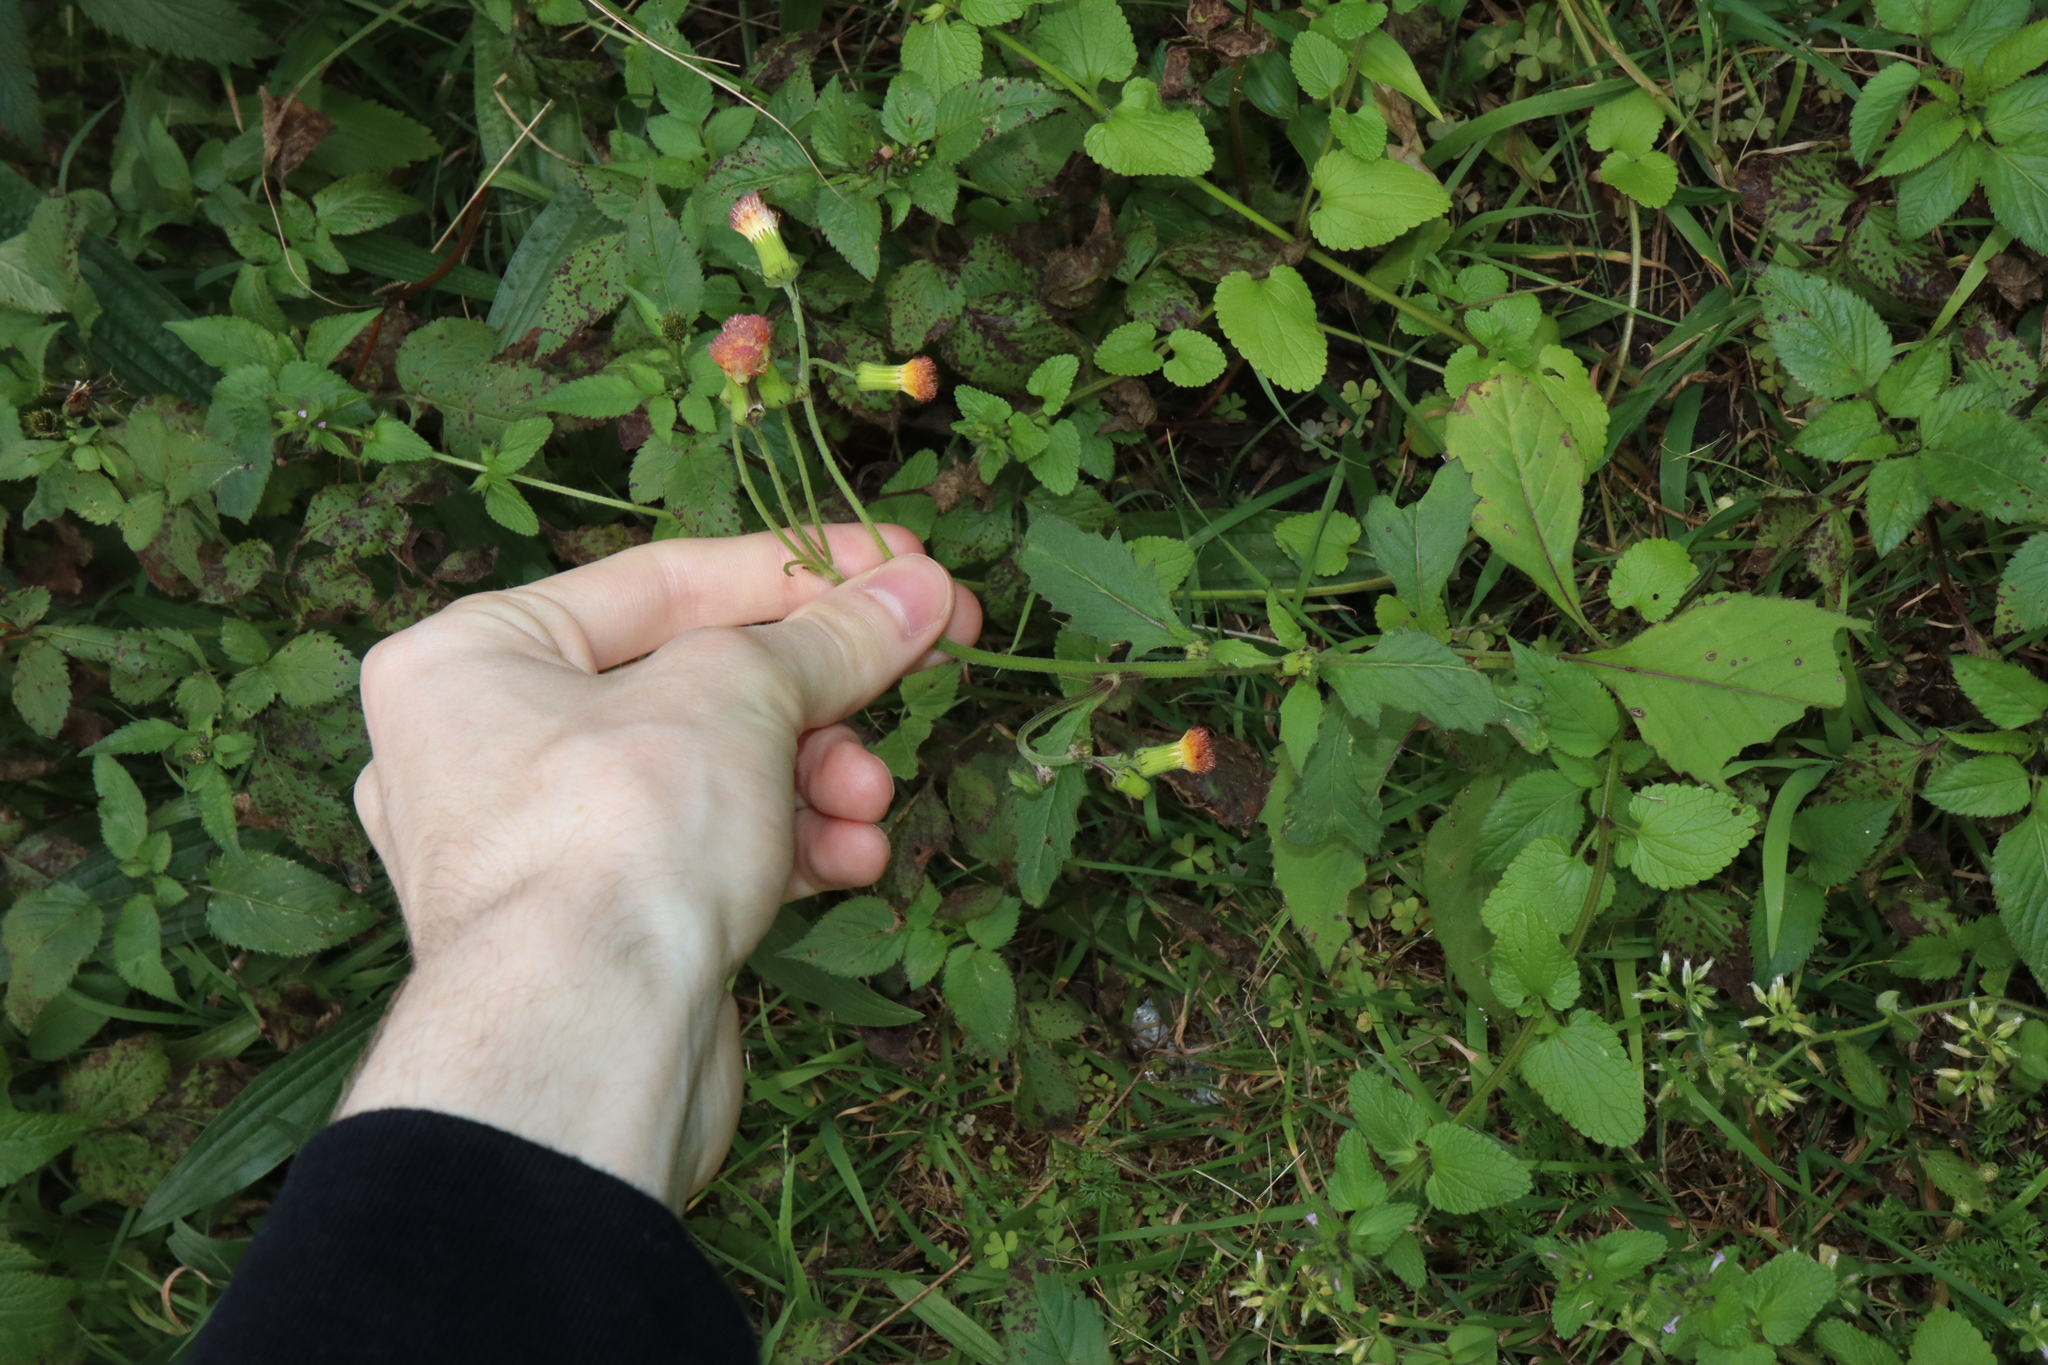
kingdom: Plantae
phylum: Tracheophyta
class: Magnoliopsida
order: Asterales
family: Asteraceae
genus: Crassocephalum
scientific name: Crassocephalum crepidioides
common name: Redflower ragleaf
